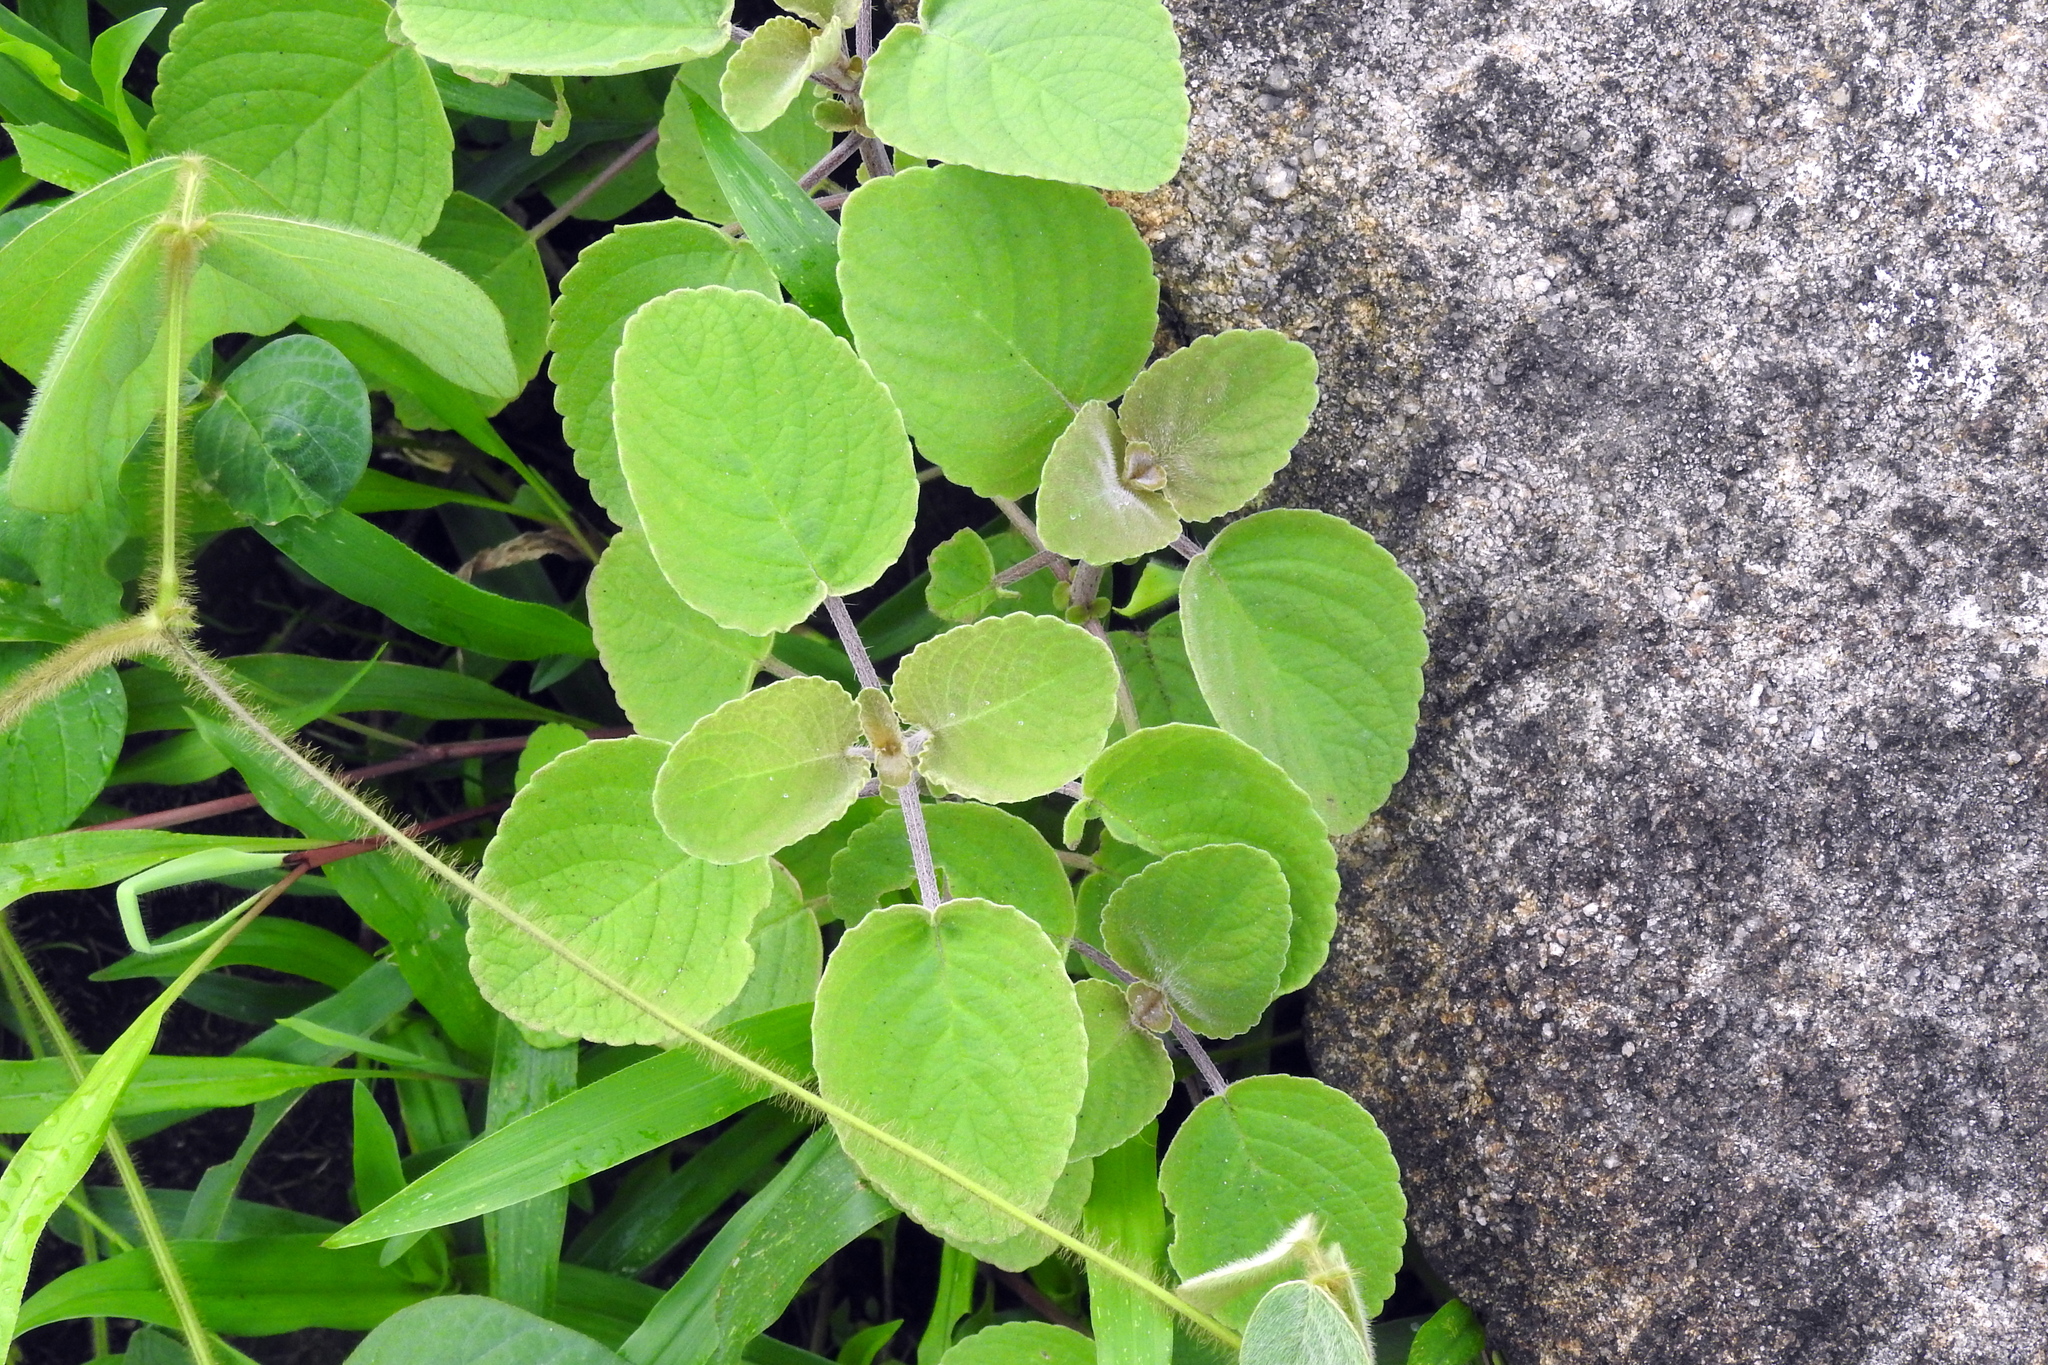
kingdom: Plantae
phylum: Tracheophyta
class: Magnoliopsida
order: Lamiales
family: Lamiaceae
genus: Coleus
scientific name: Coleus amboinicus
